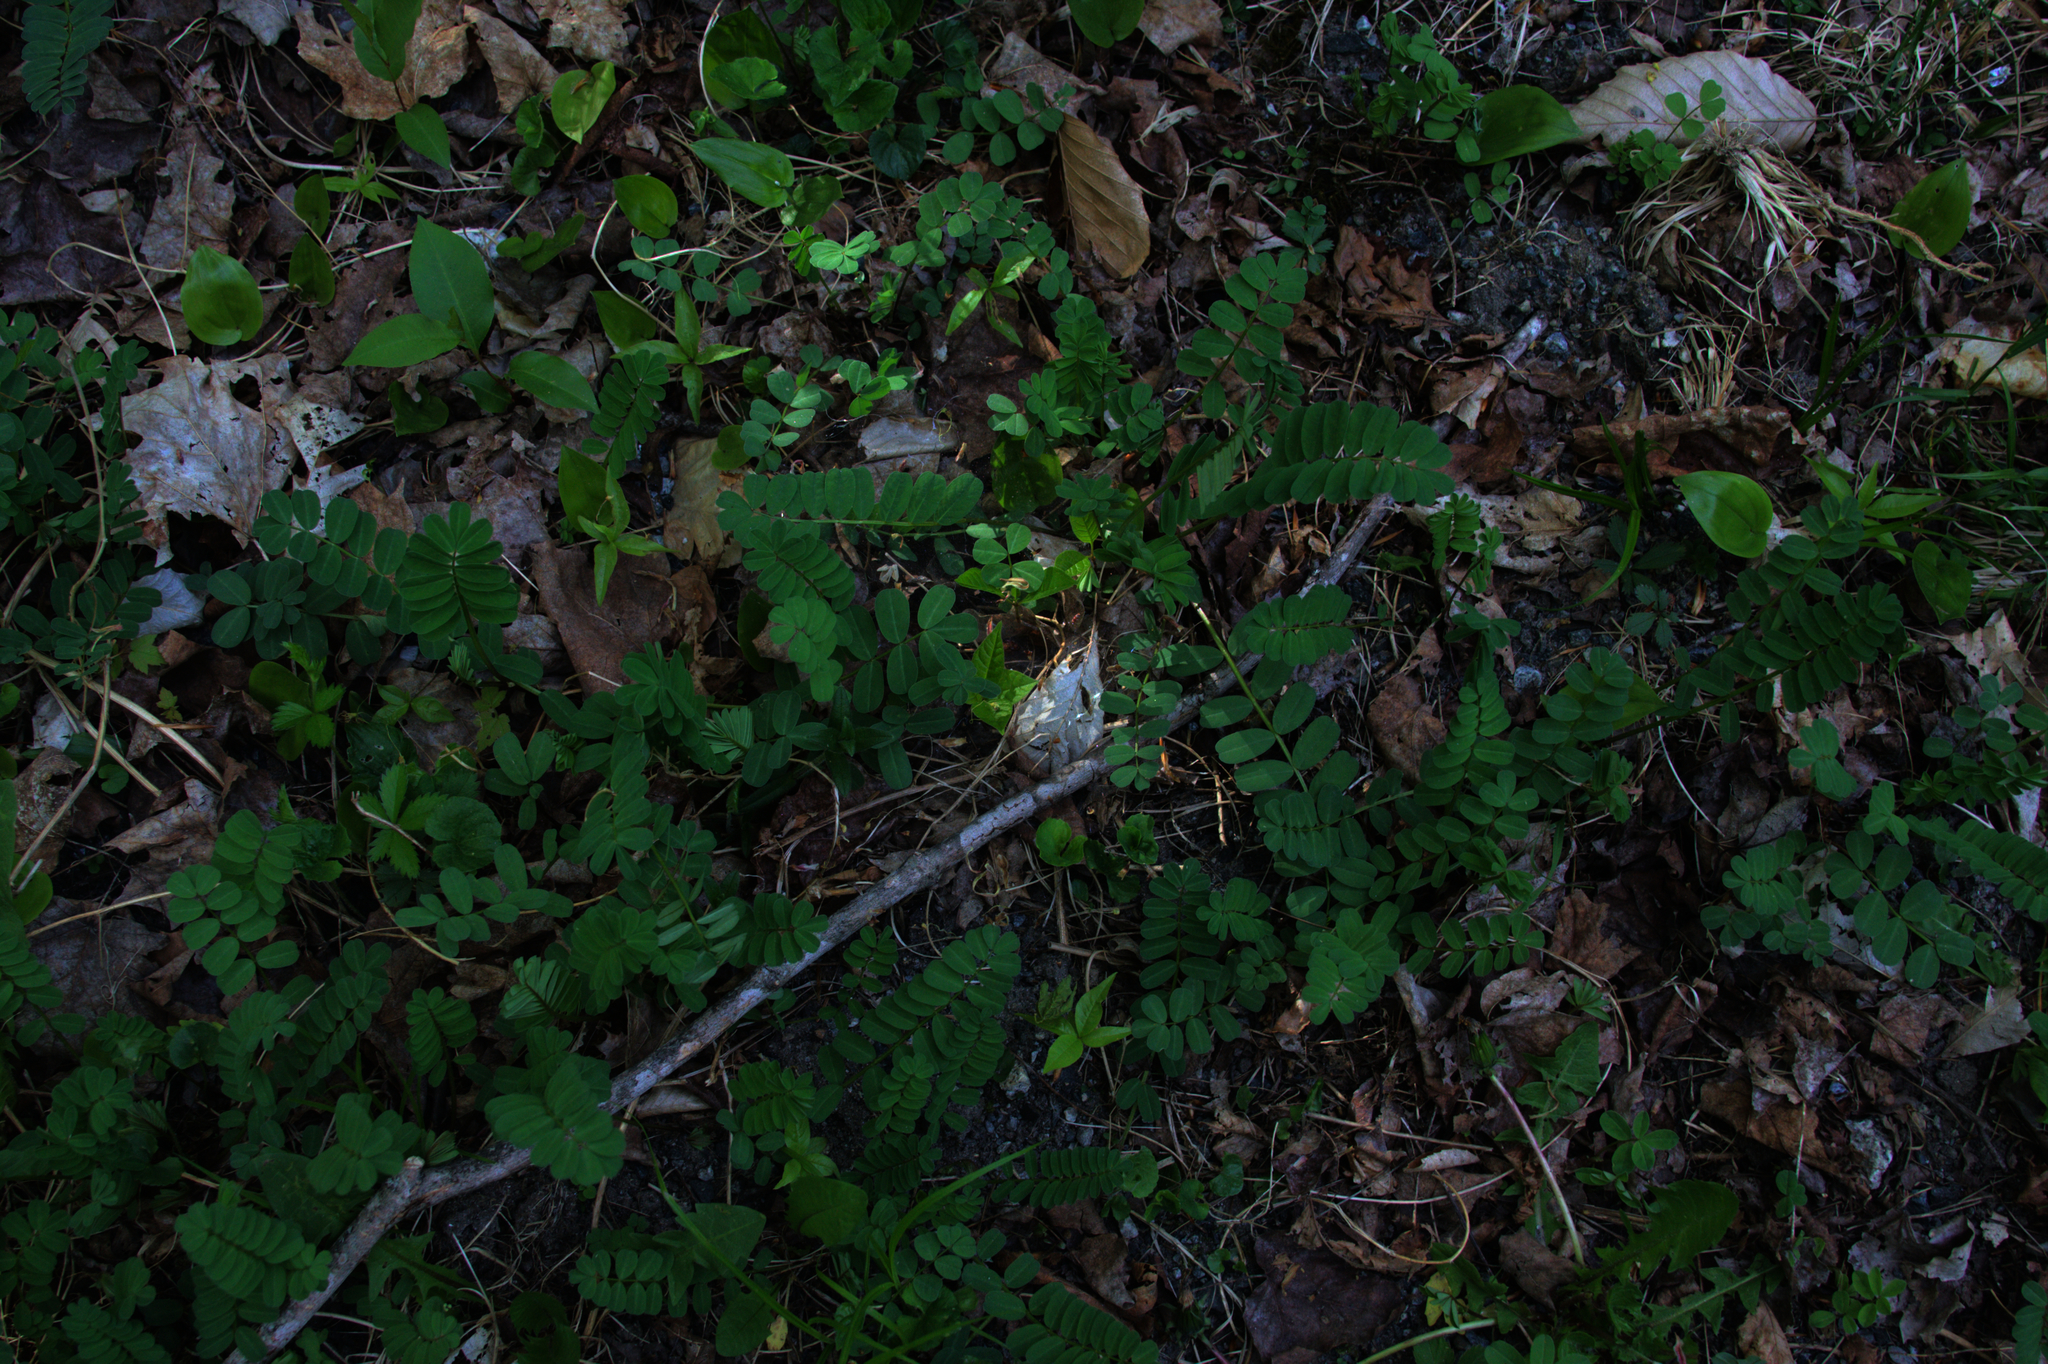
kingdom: Plantae
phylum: Tracheophyta
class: Liliopsida
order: Asparagales
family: Asparagaceae
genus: Maianthemum
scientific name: Maianthemum canadense
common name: False lily-of-the-valley
